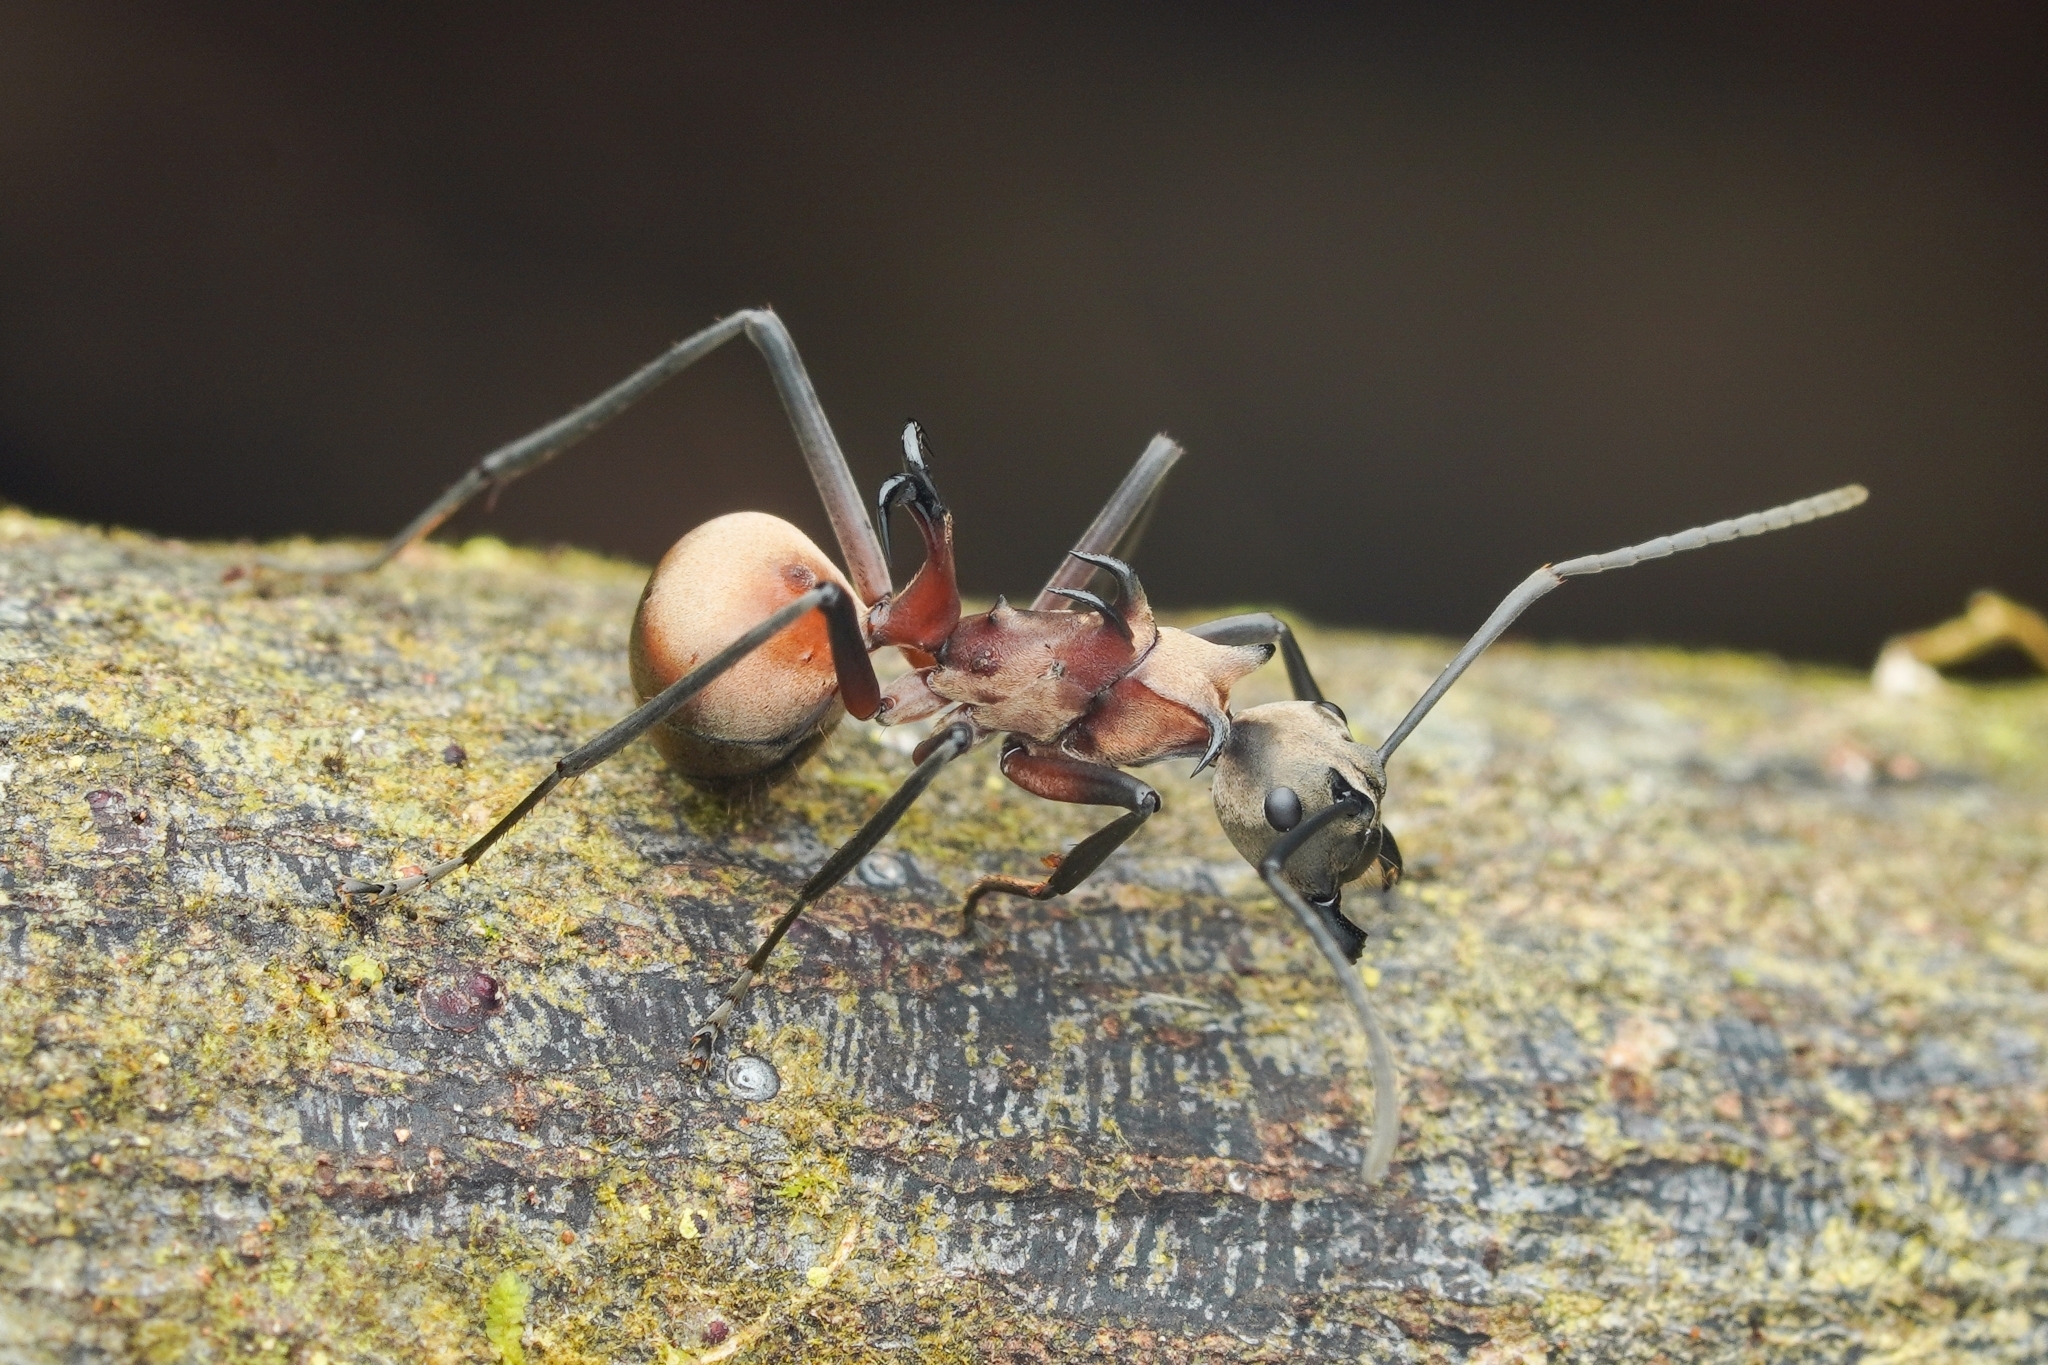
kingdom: Animalia
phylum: Arthropoda
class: Insecta
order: Hymenoptera
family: Formicidae
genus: Polyrhachis
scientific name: Polyrhachis olybria
